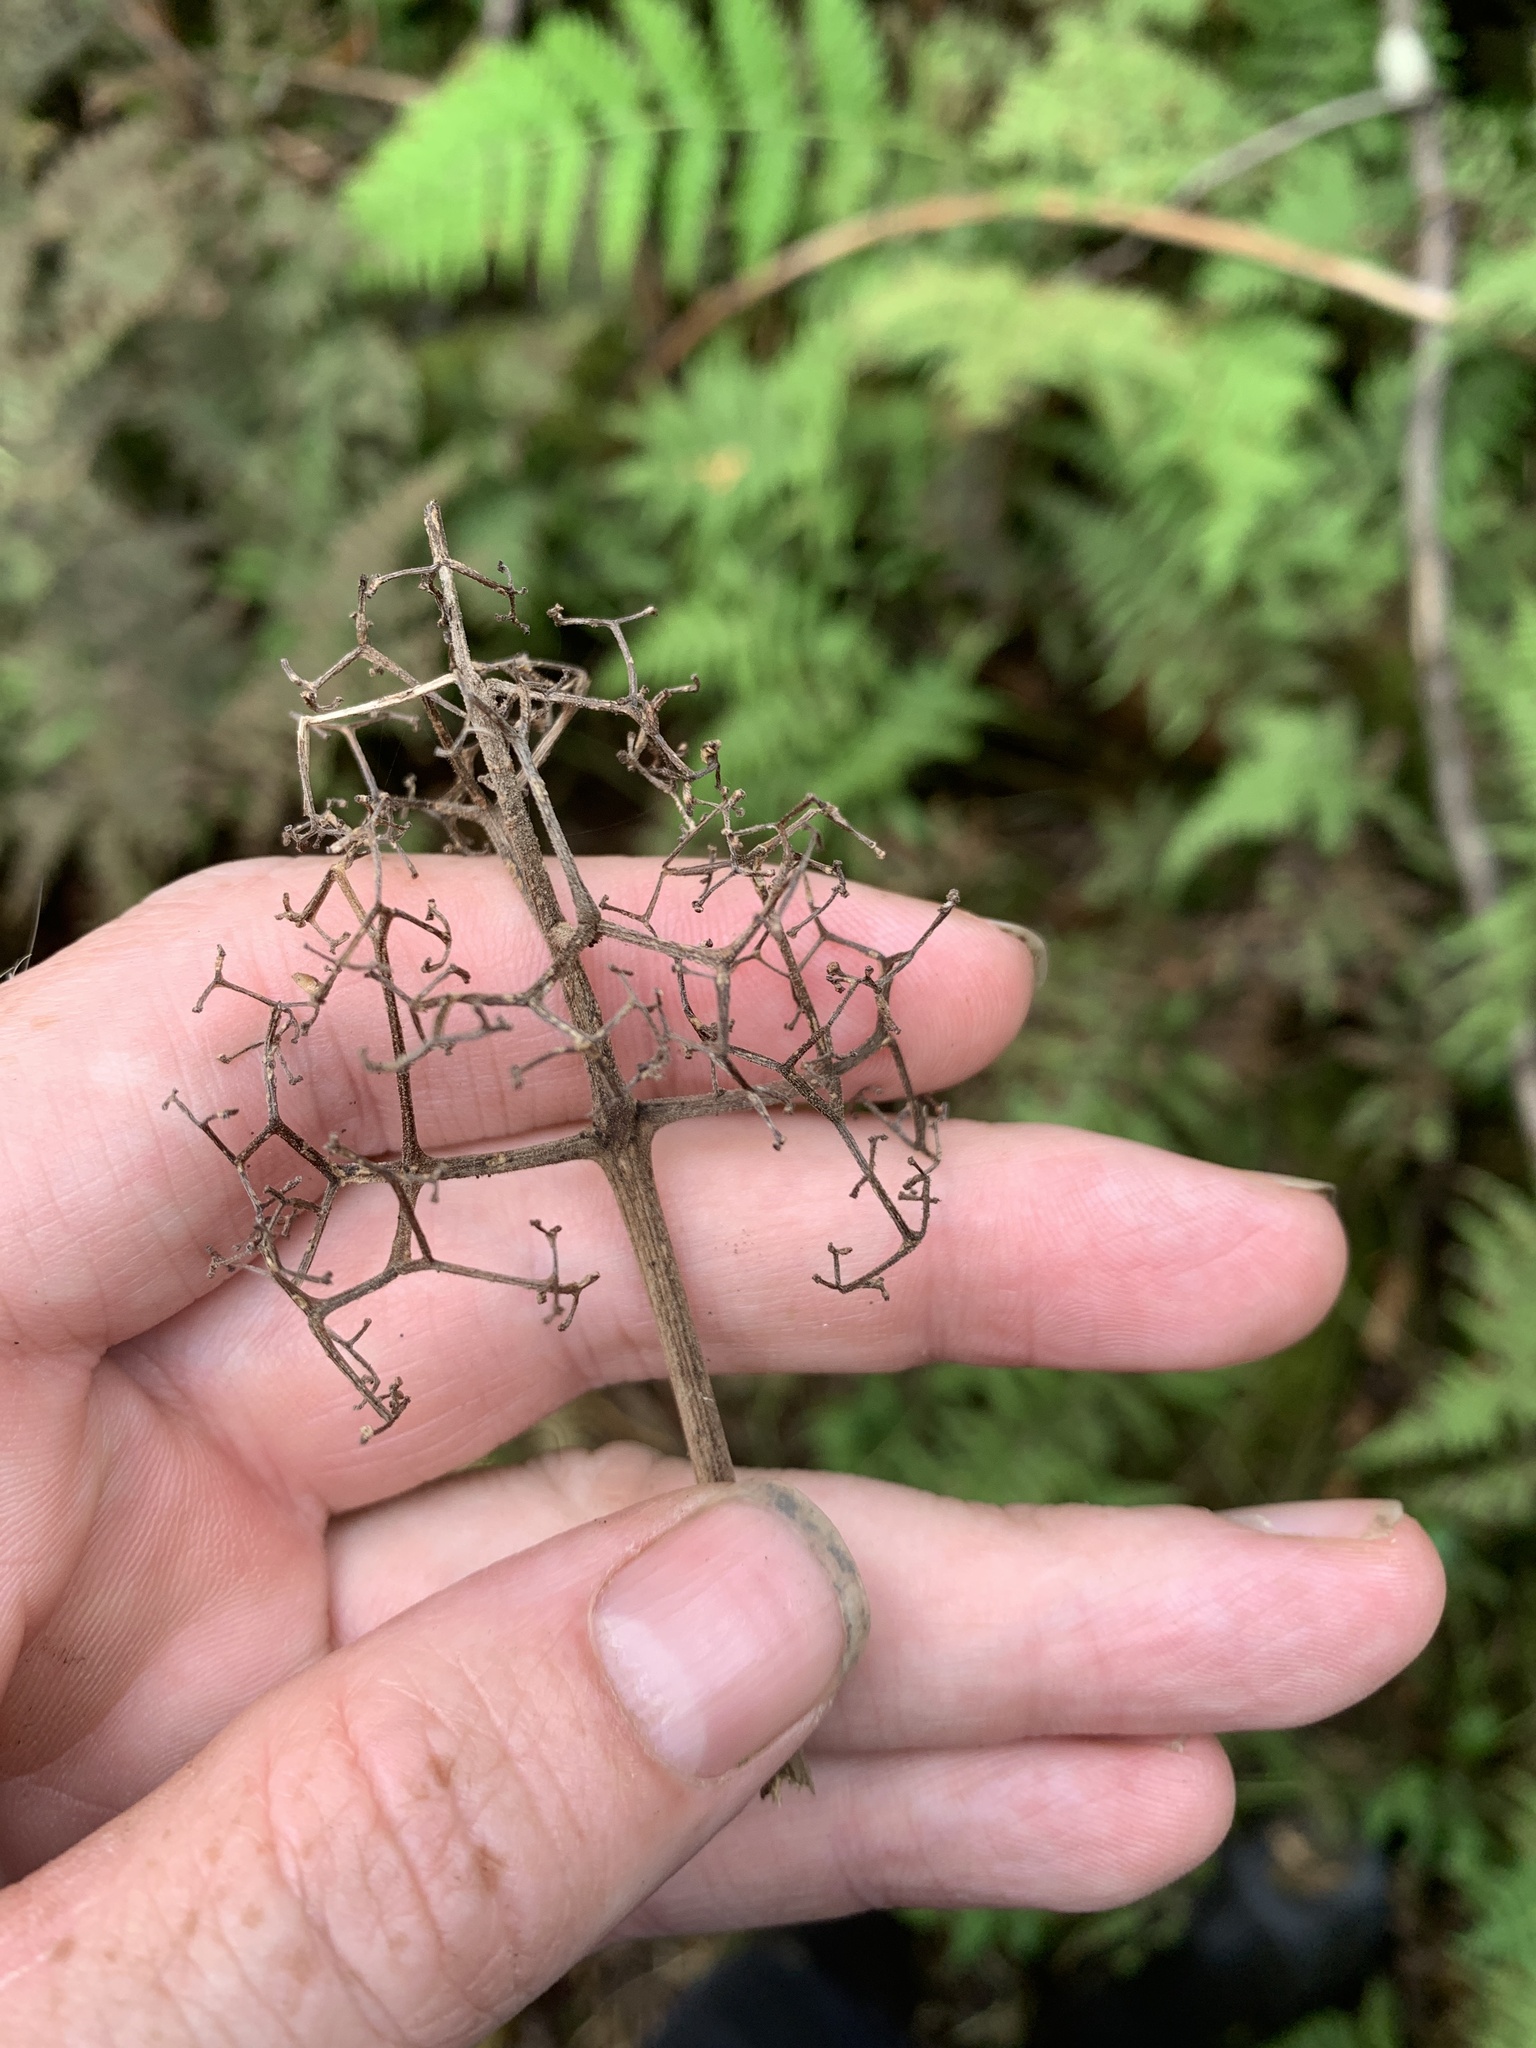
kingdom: Plantae
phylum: Tracheophyta
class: Magnoliopsida
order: Dipsacales
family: Viburnaceae
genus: Sambucus
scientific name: Sambucus racemosa
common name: Red-berried elder
